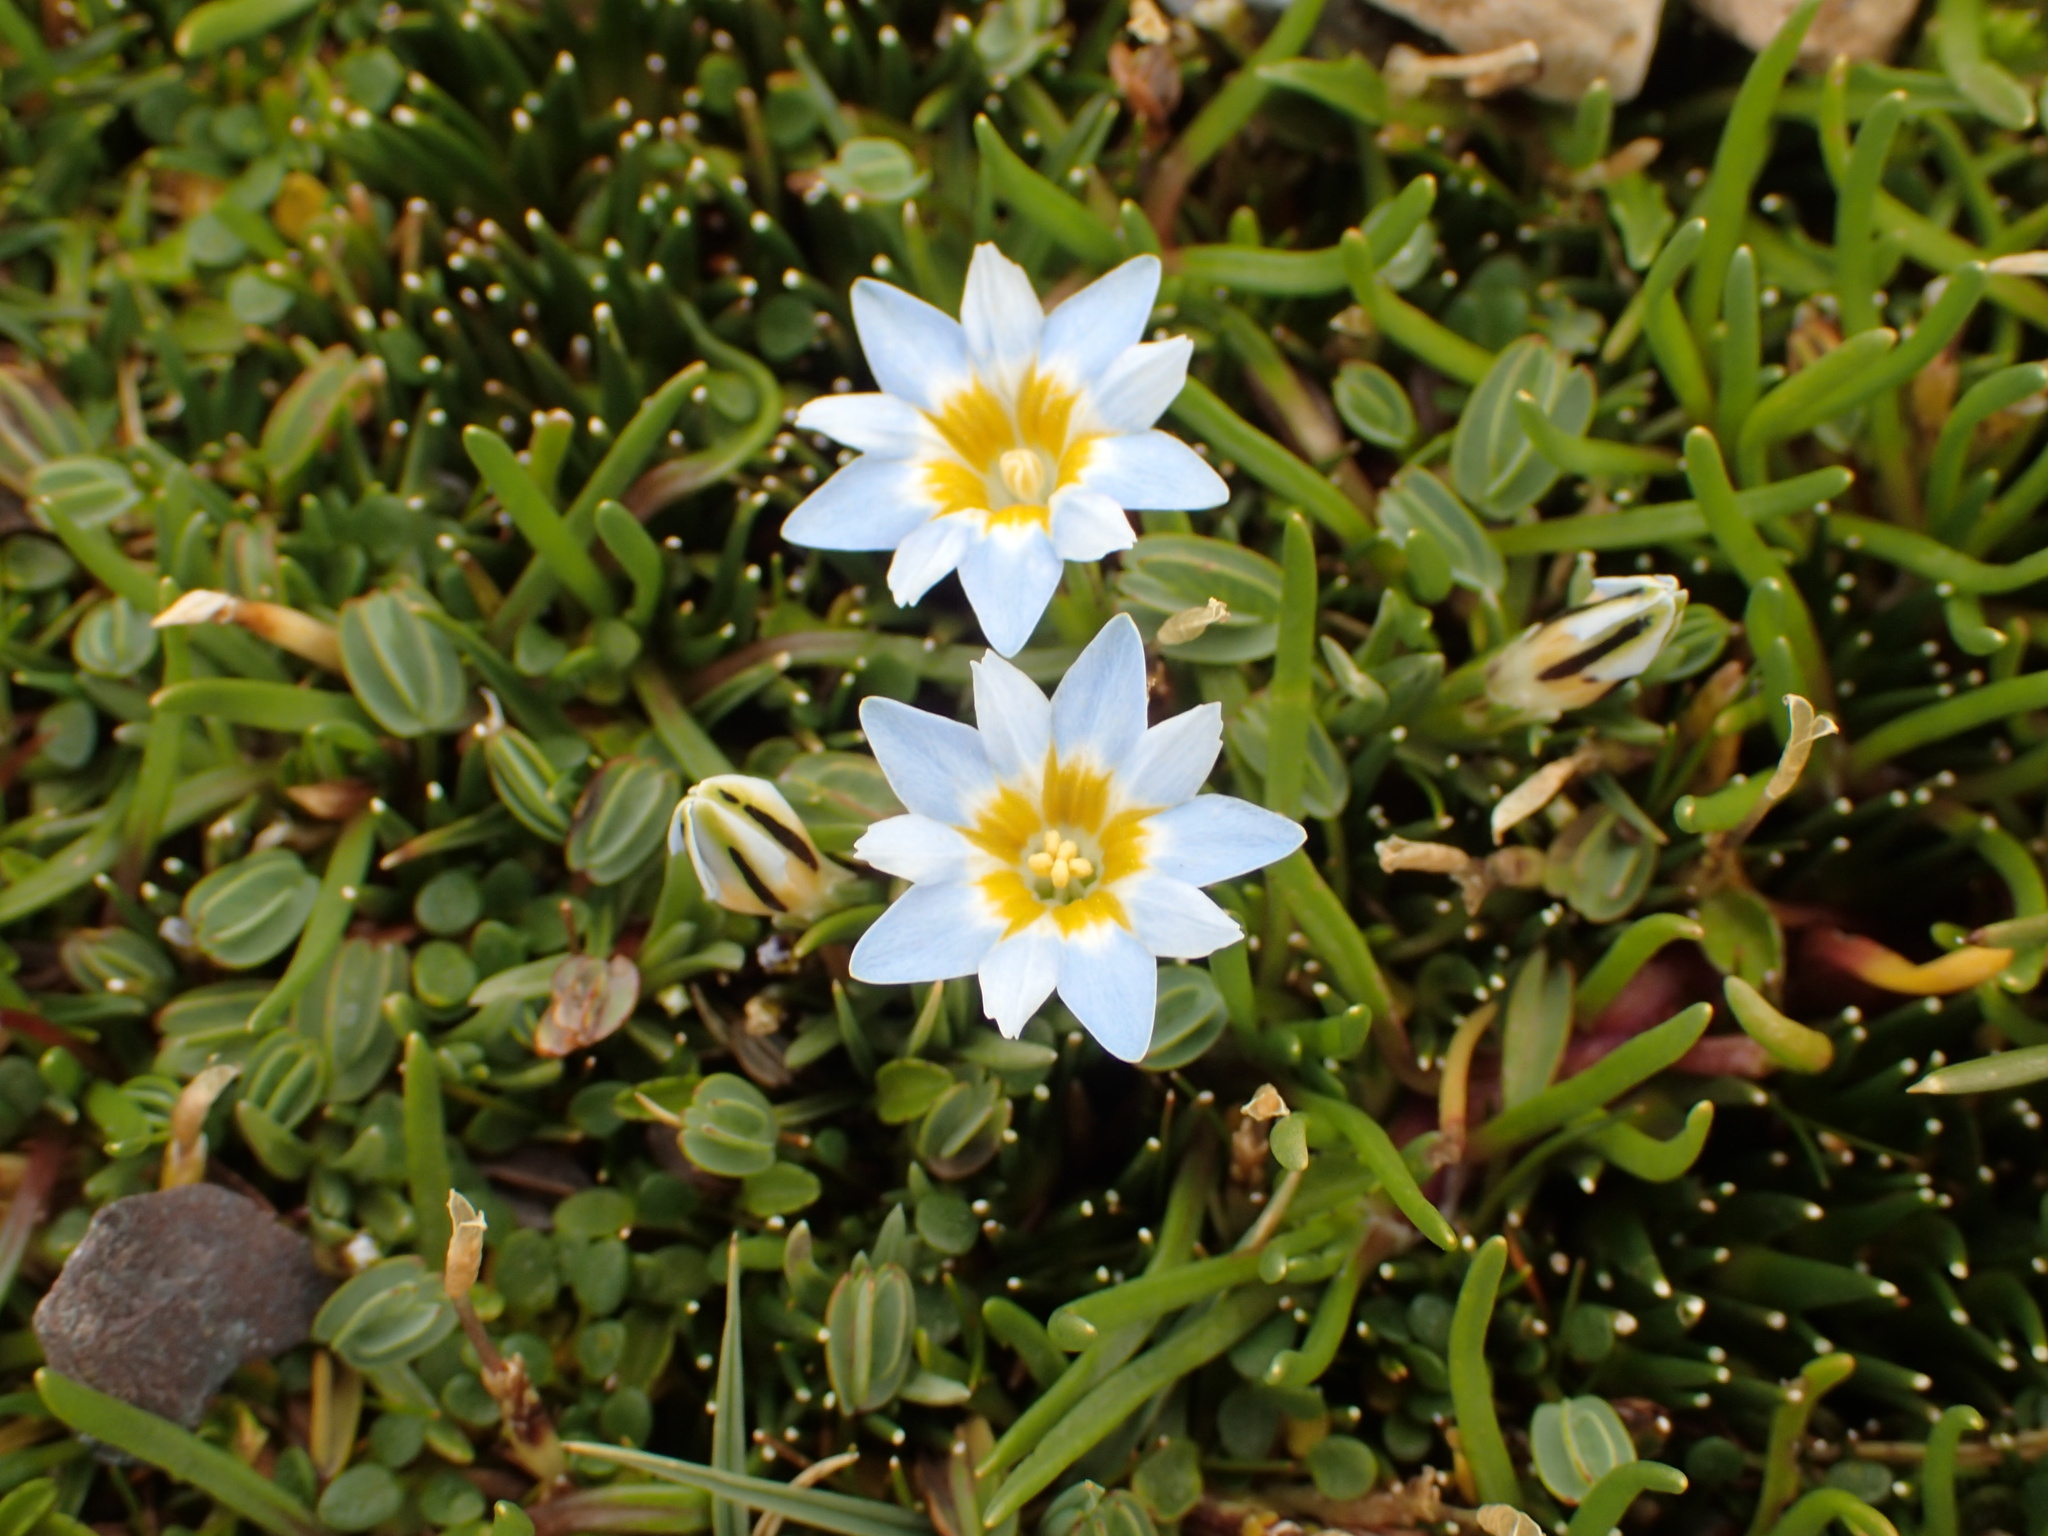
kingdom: Plantae
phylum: Tracheophyta
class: Magnoliopsida
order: Gentianales
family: Gentianaceae
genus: Gentiana
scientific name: Gentiana sedifolia
